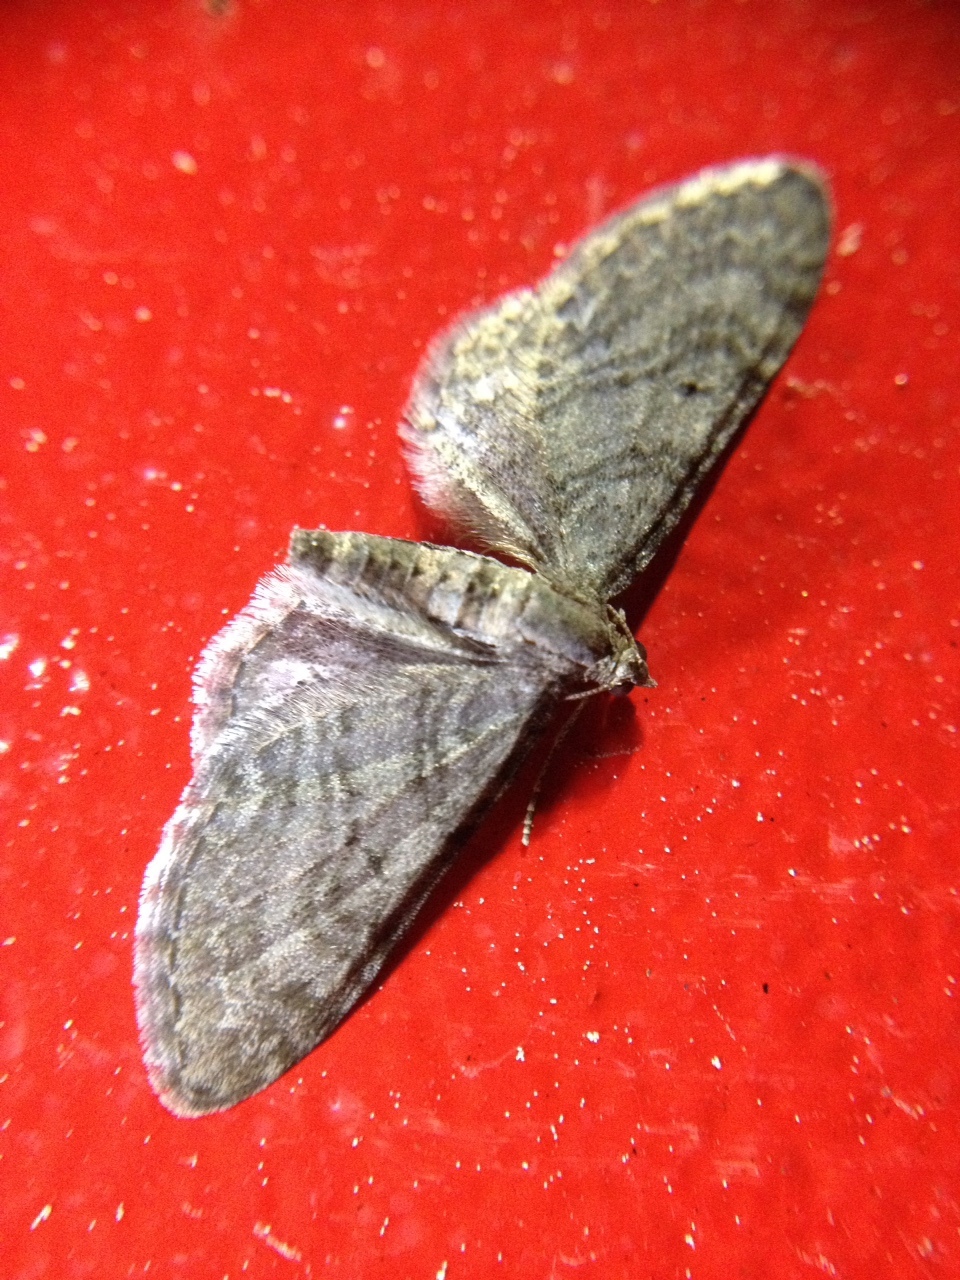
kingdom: Animalia
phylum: Arthropoda
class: Insecta
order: Lepidoptera
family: Geometridae
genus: Eupithecia
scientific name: Eupithecia egenaria
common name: Pauper pug
